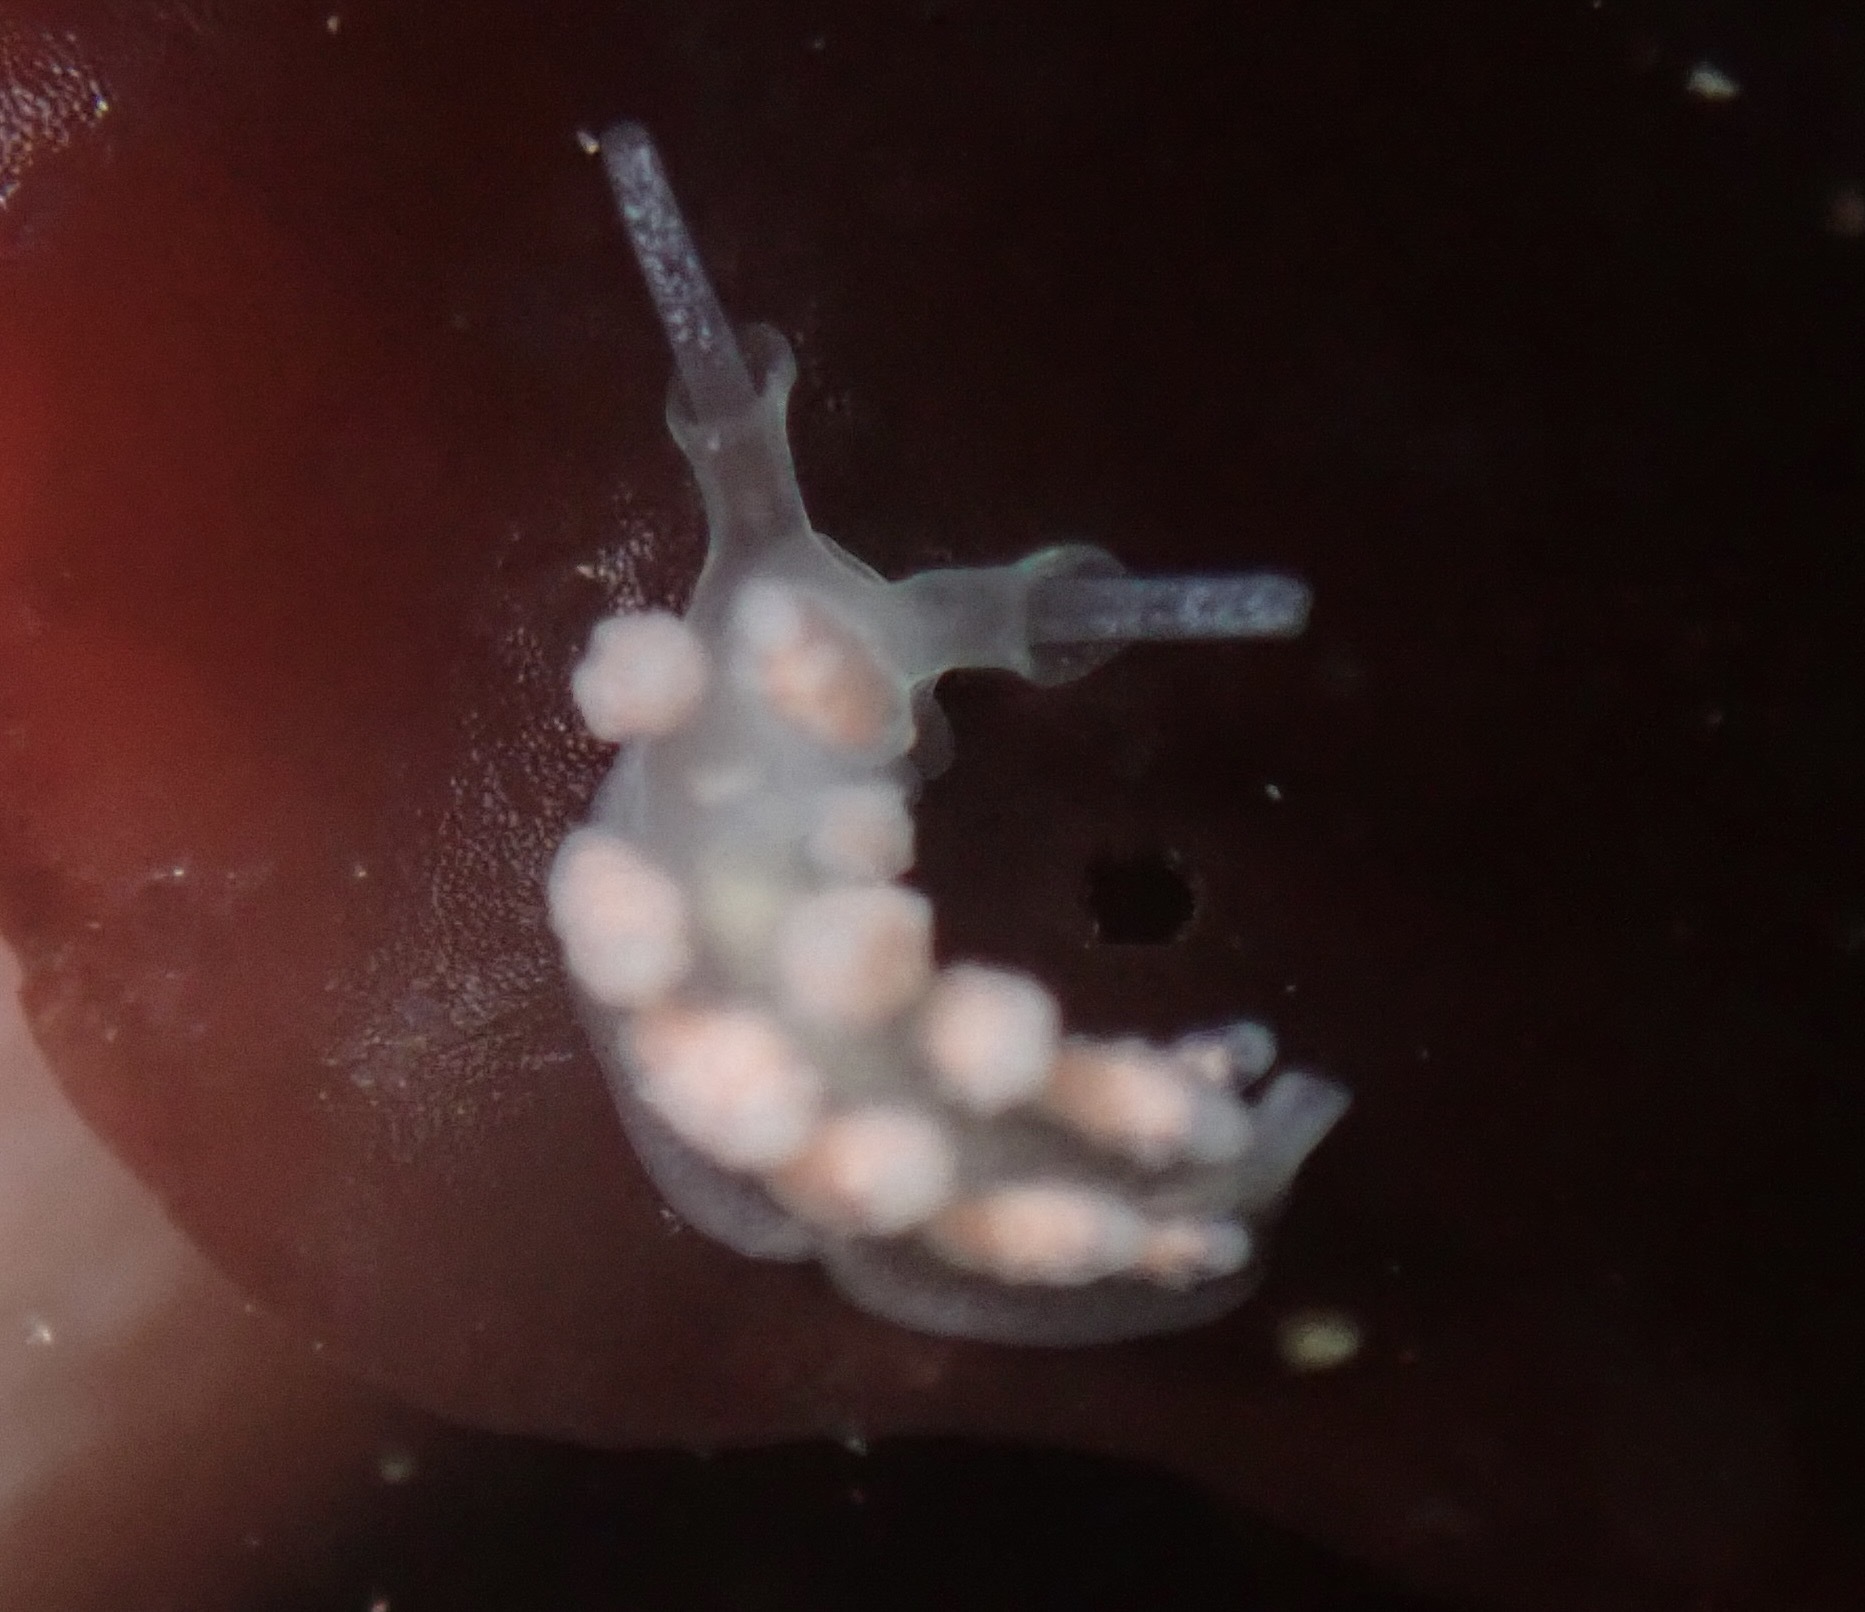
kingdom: Animalia
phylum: Mollusca
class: Gastropoda
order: Nudibranchia
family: Dotidae
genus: Doto
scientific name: Doto amyra
